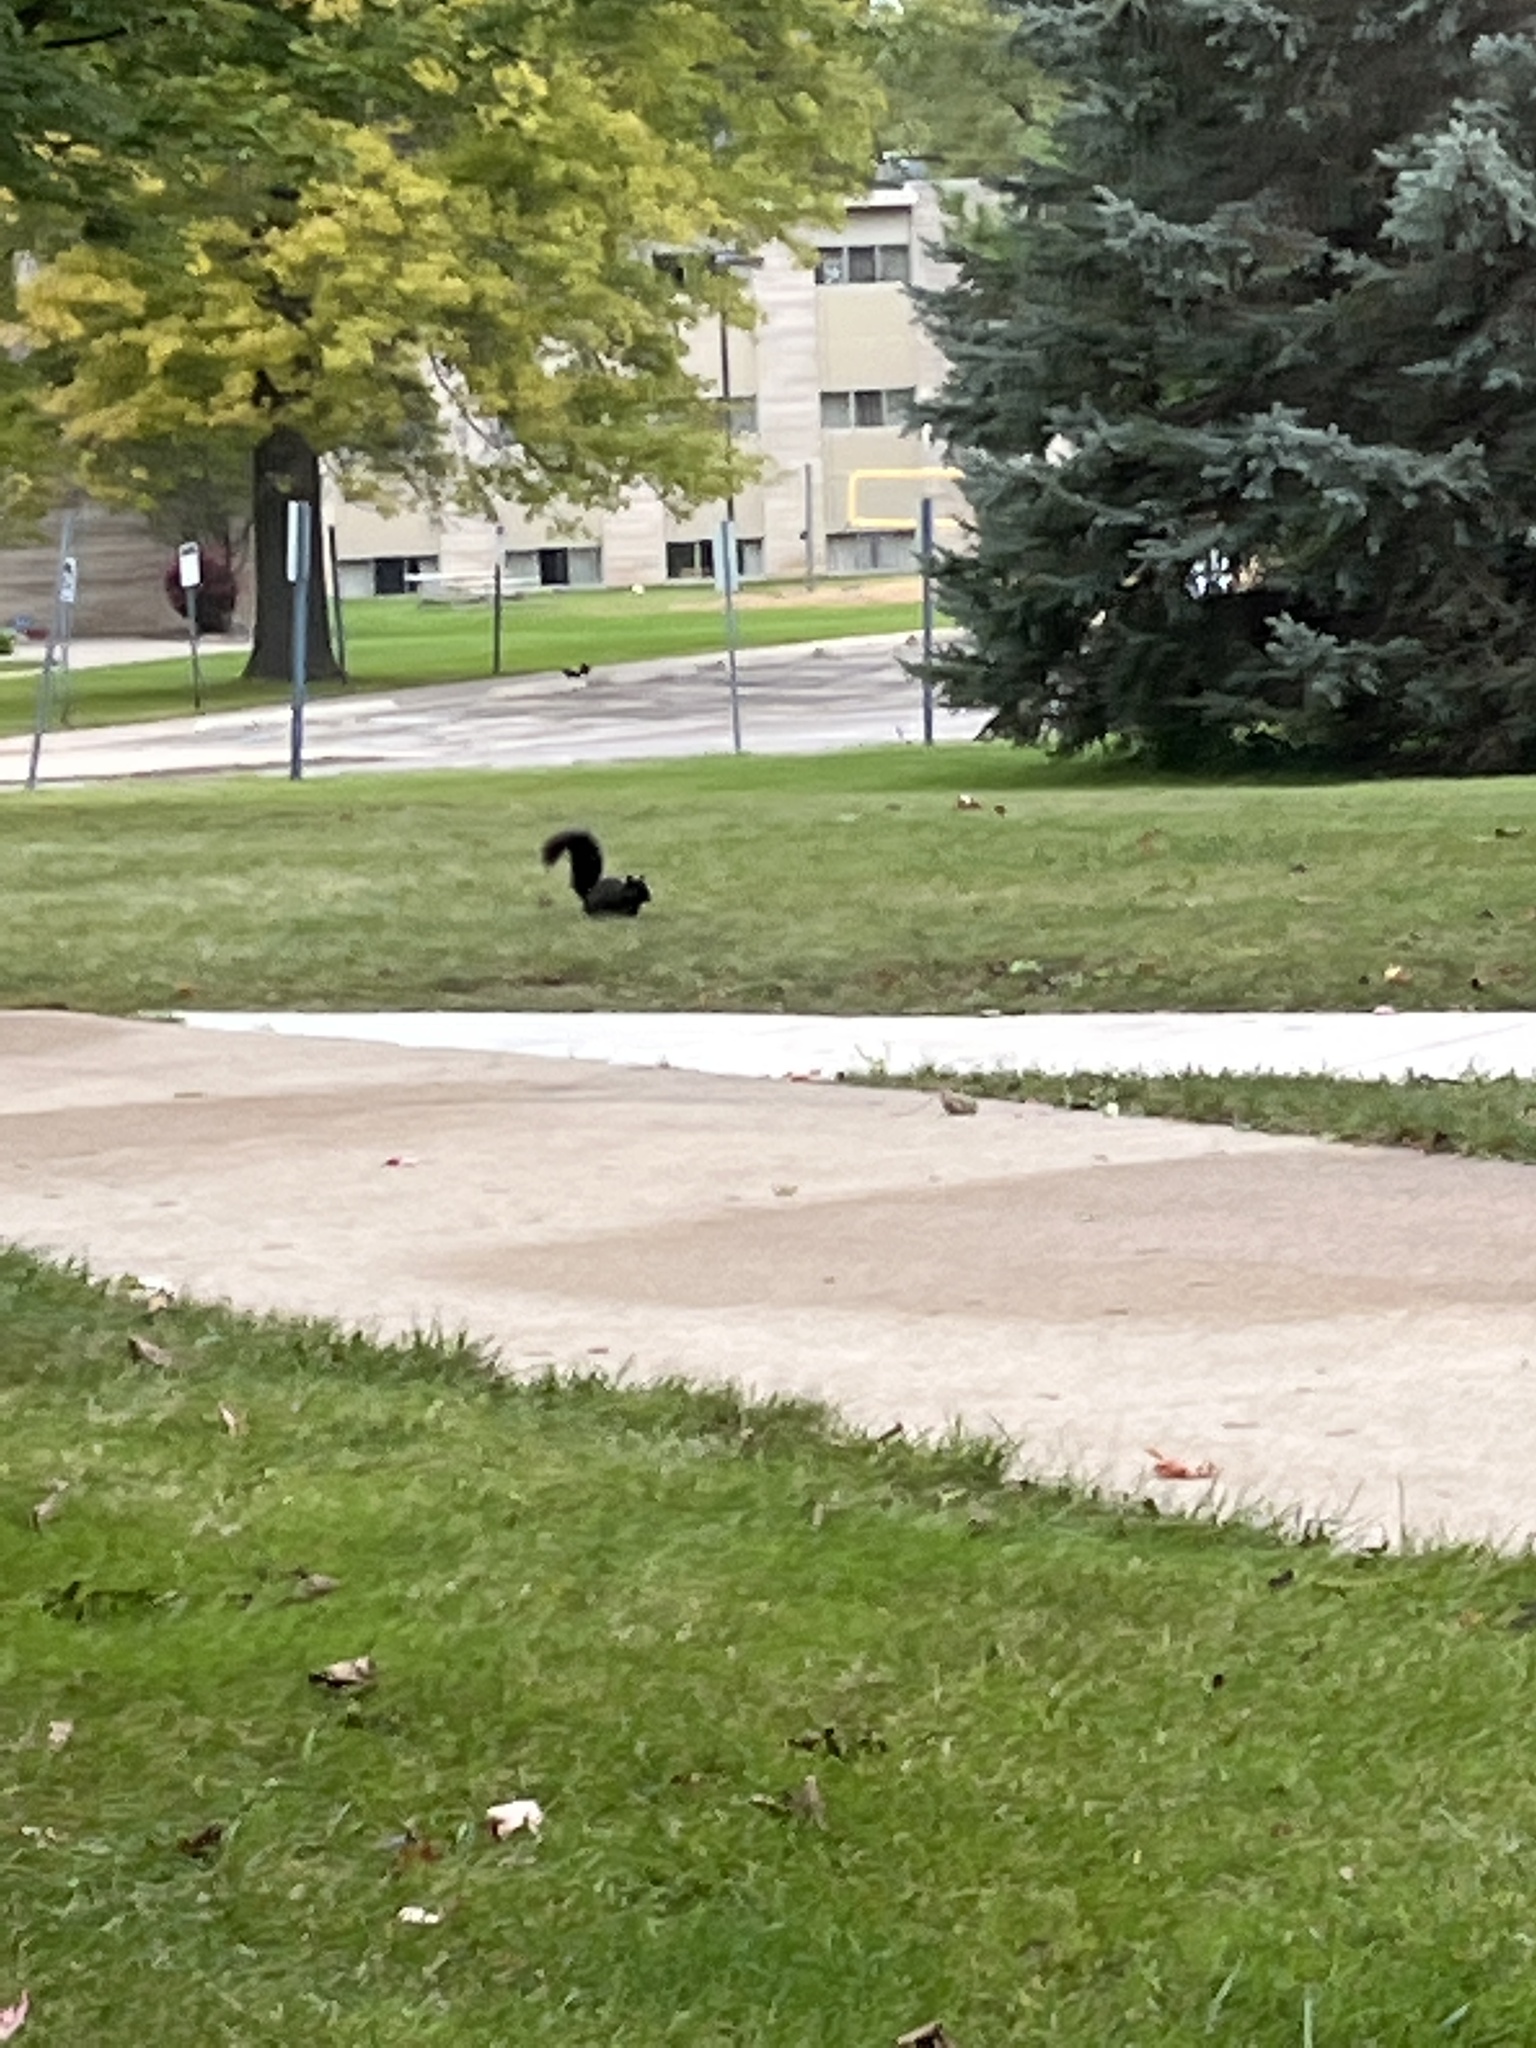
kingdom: Animalia
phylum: Chordata
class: Mammalia
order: Rodentia
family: Sciuridae
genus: Sciurus
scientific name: Sciurus carolinensis
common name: Eastern gray squirrel
